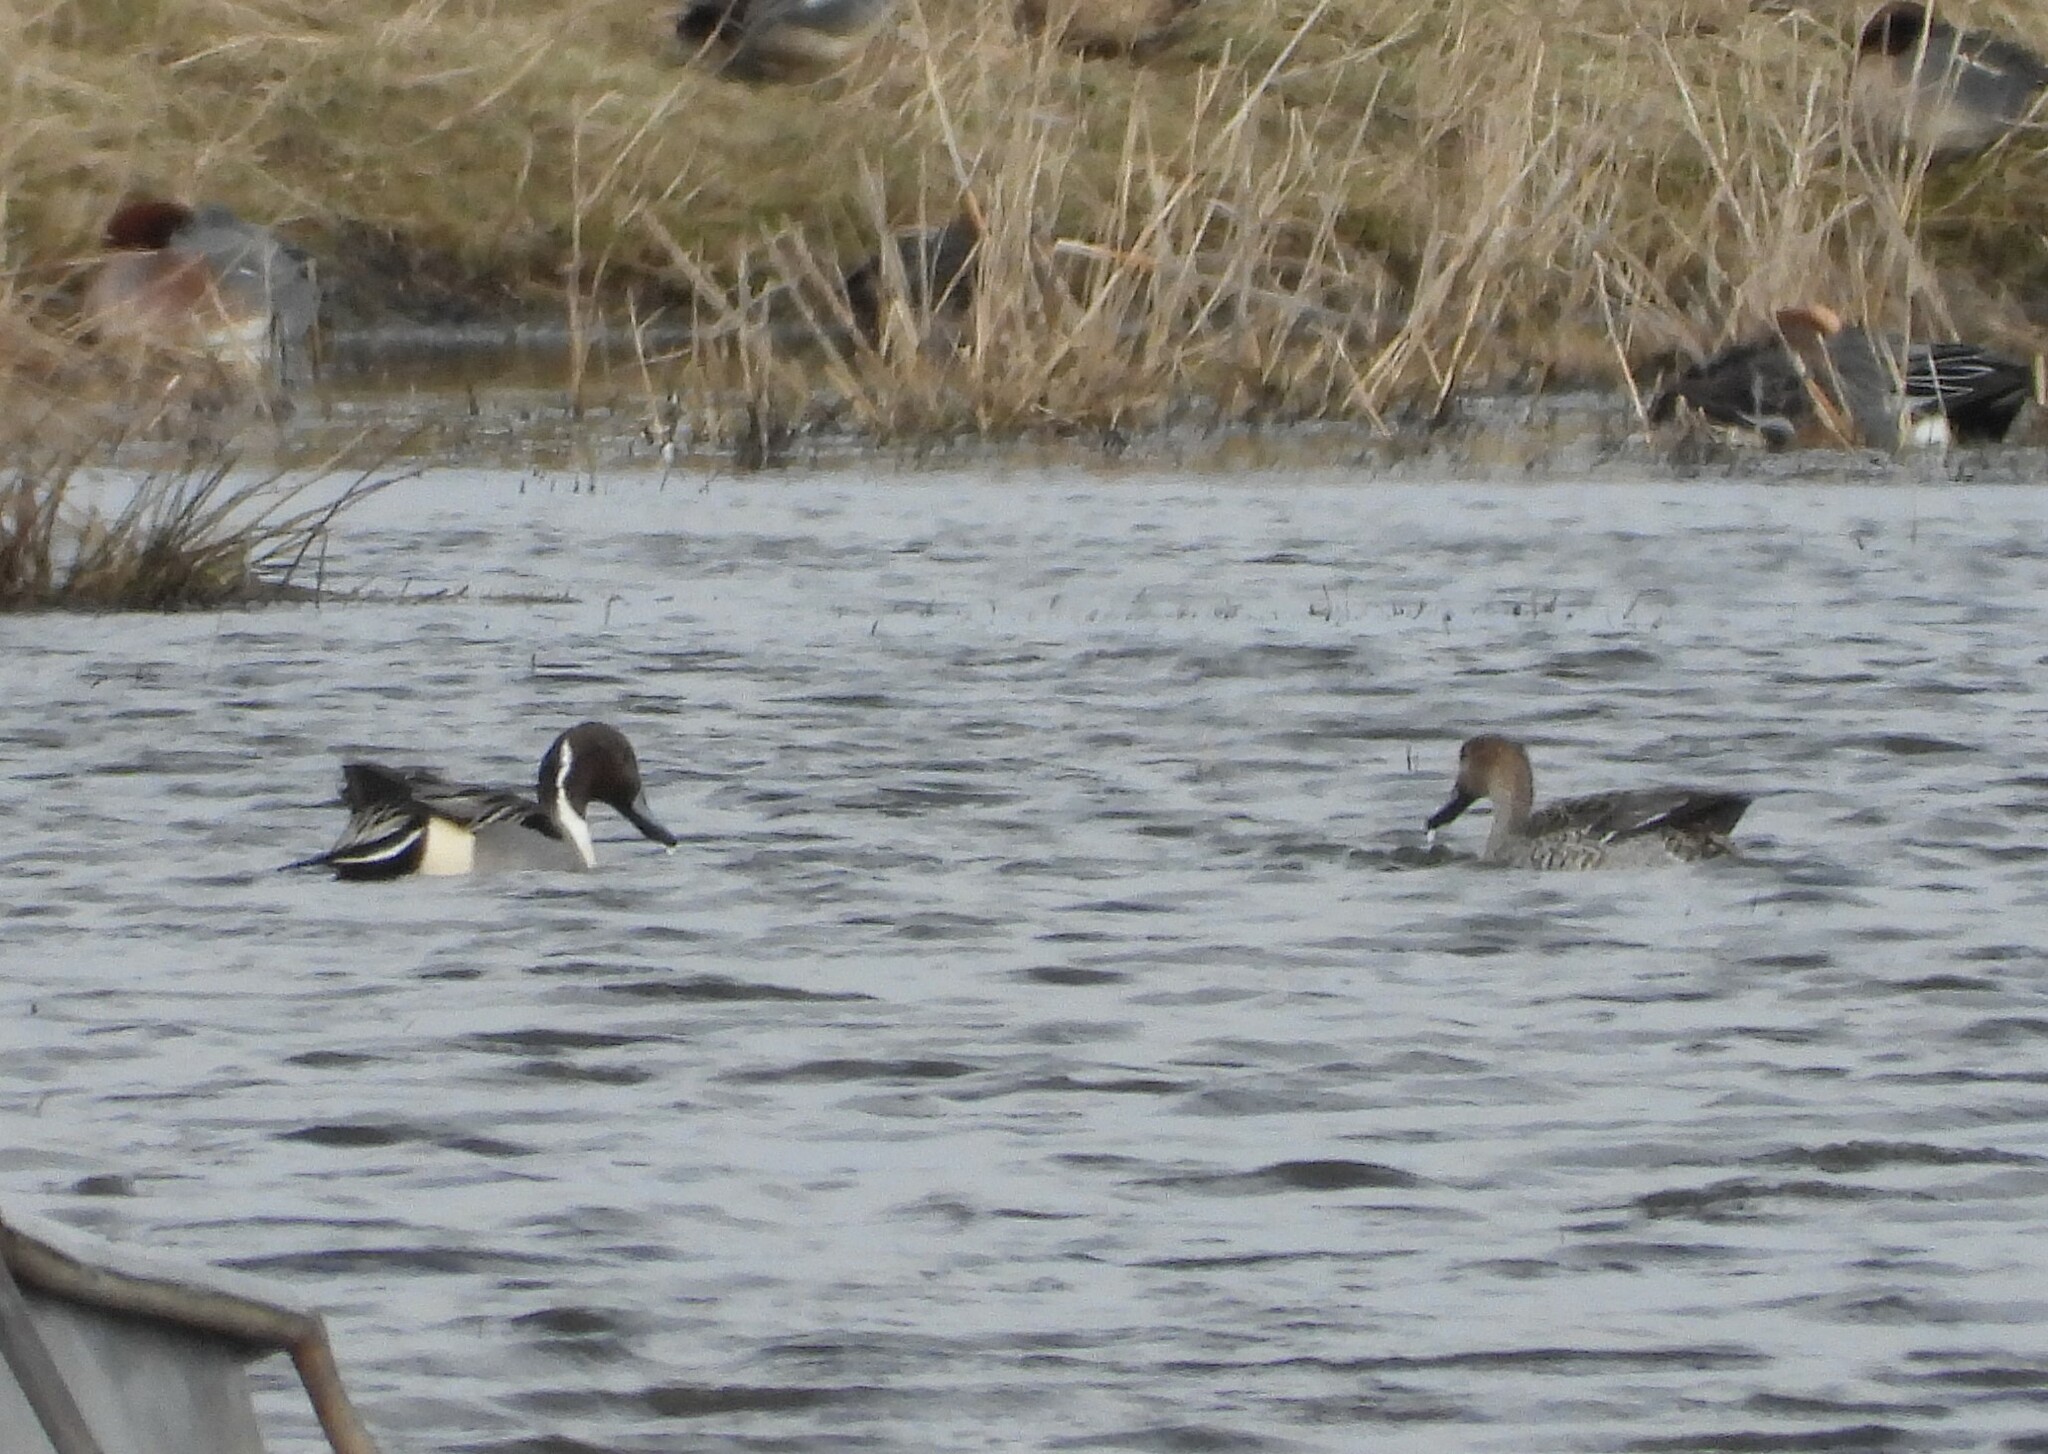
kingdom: Animalia
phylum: Chordata
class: Aves
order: Anseriformes
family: Anatidae
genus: Anas
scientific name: Anas acuta
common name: Northern pintail
